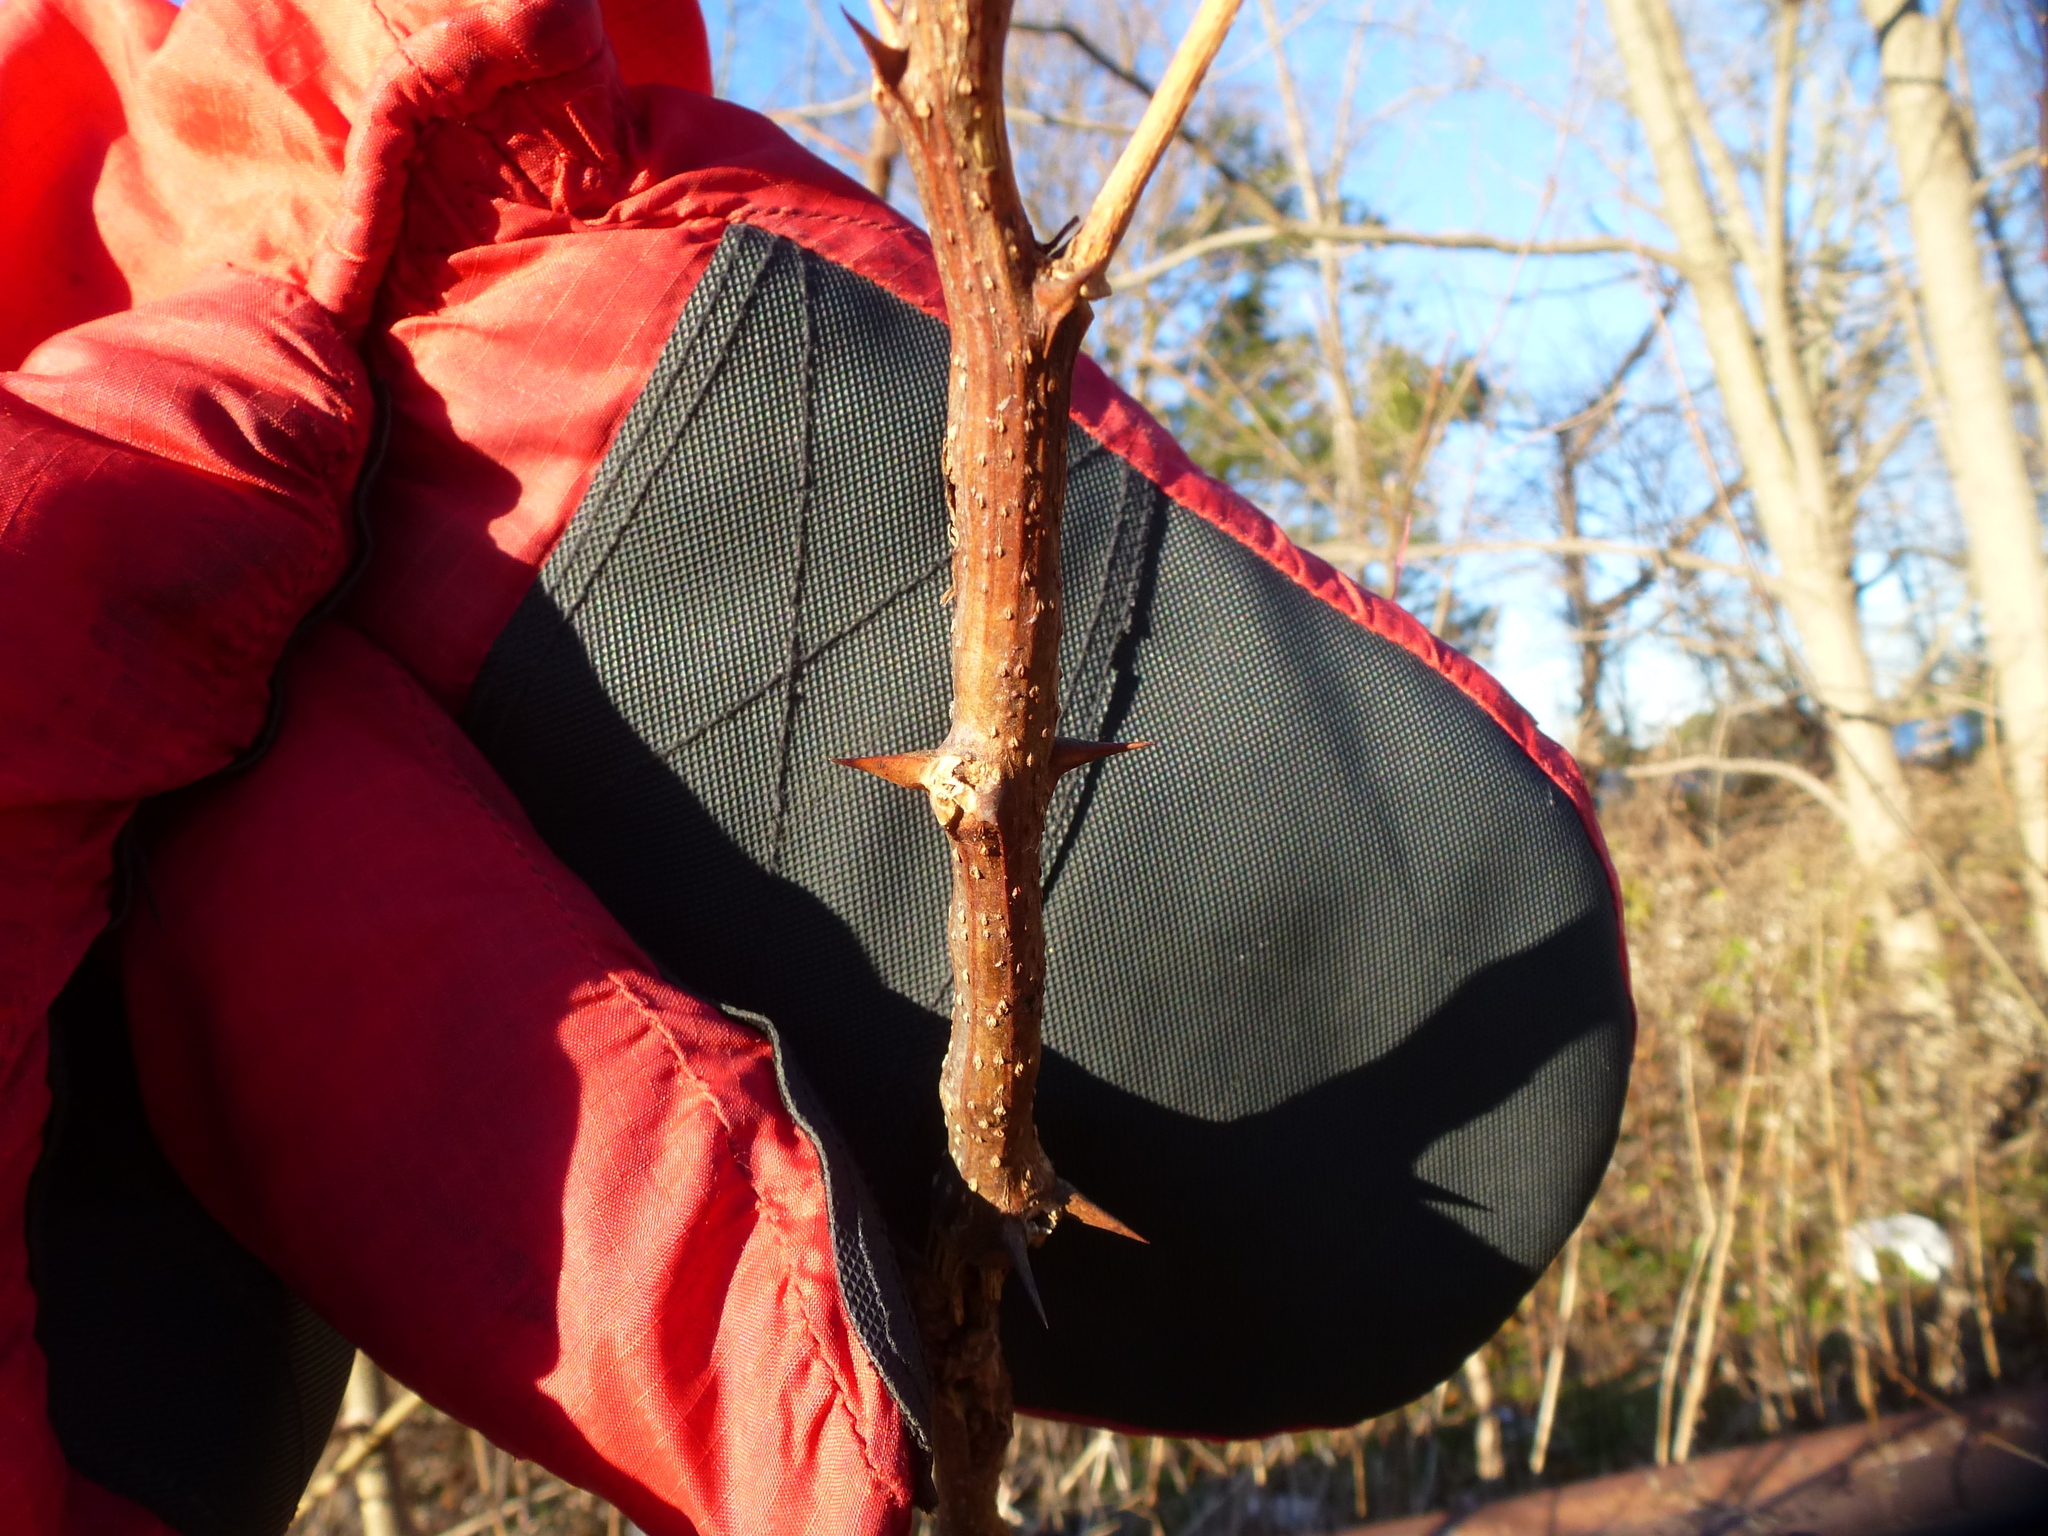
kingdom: Plantae
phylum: Tracheophyta
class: Magnoliopsida
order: Fabales
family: Fabaceae
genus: Robinia
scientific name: Robinia pseudoacacia
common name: Black locust
